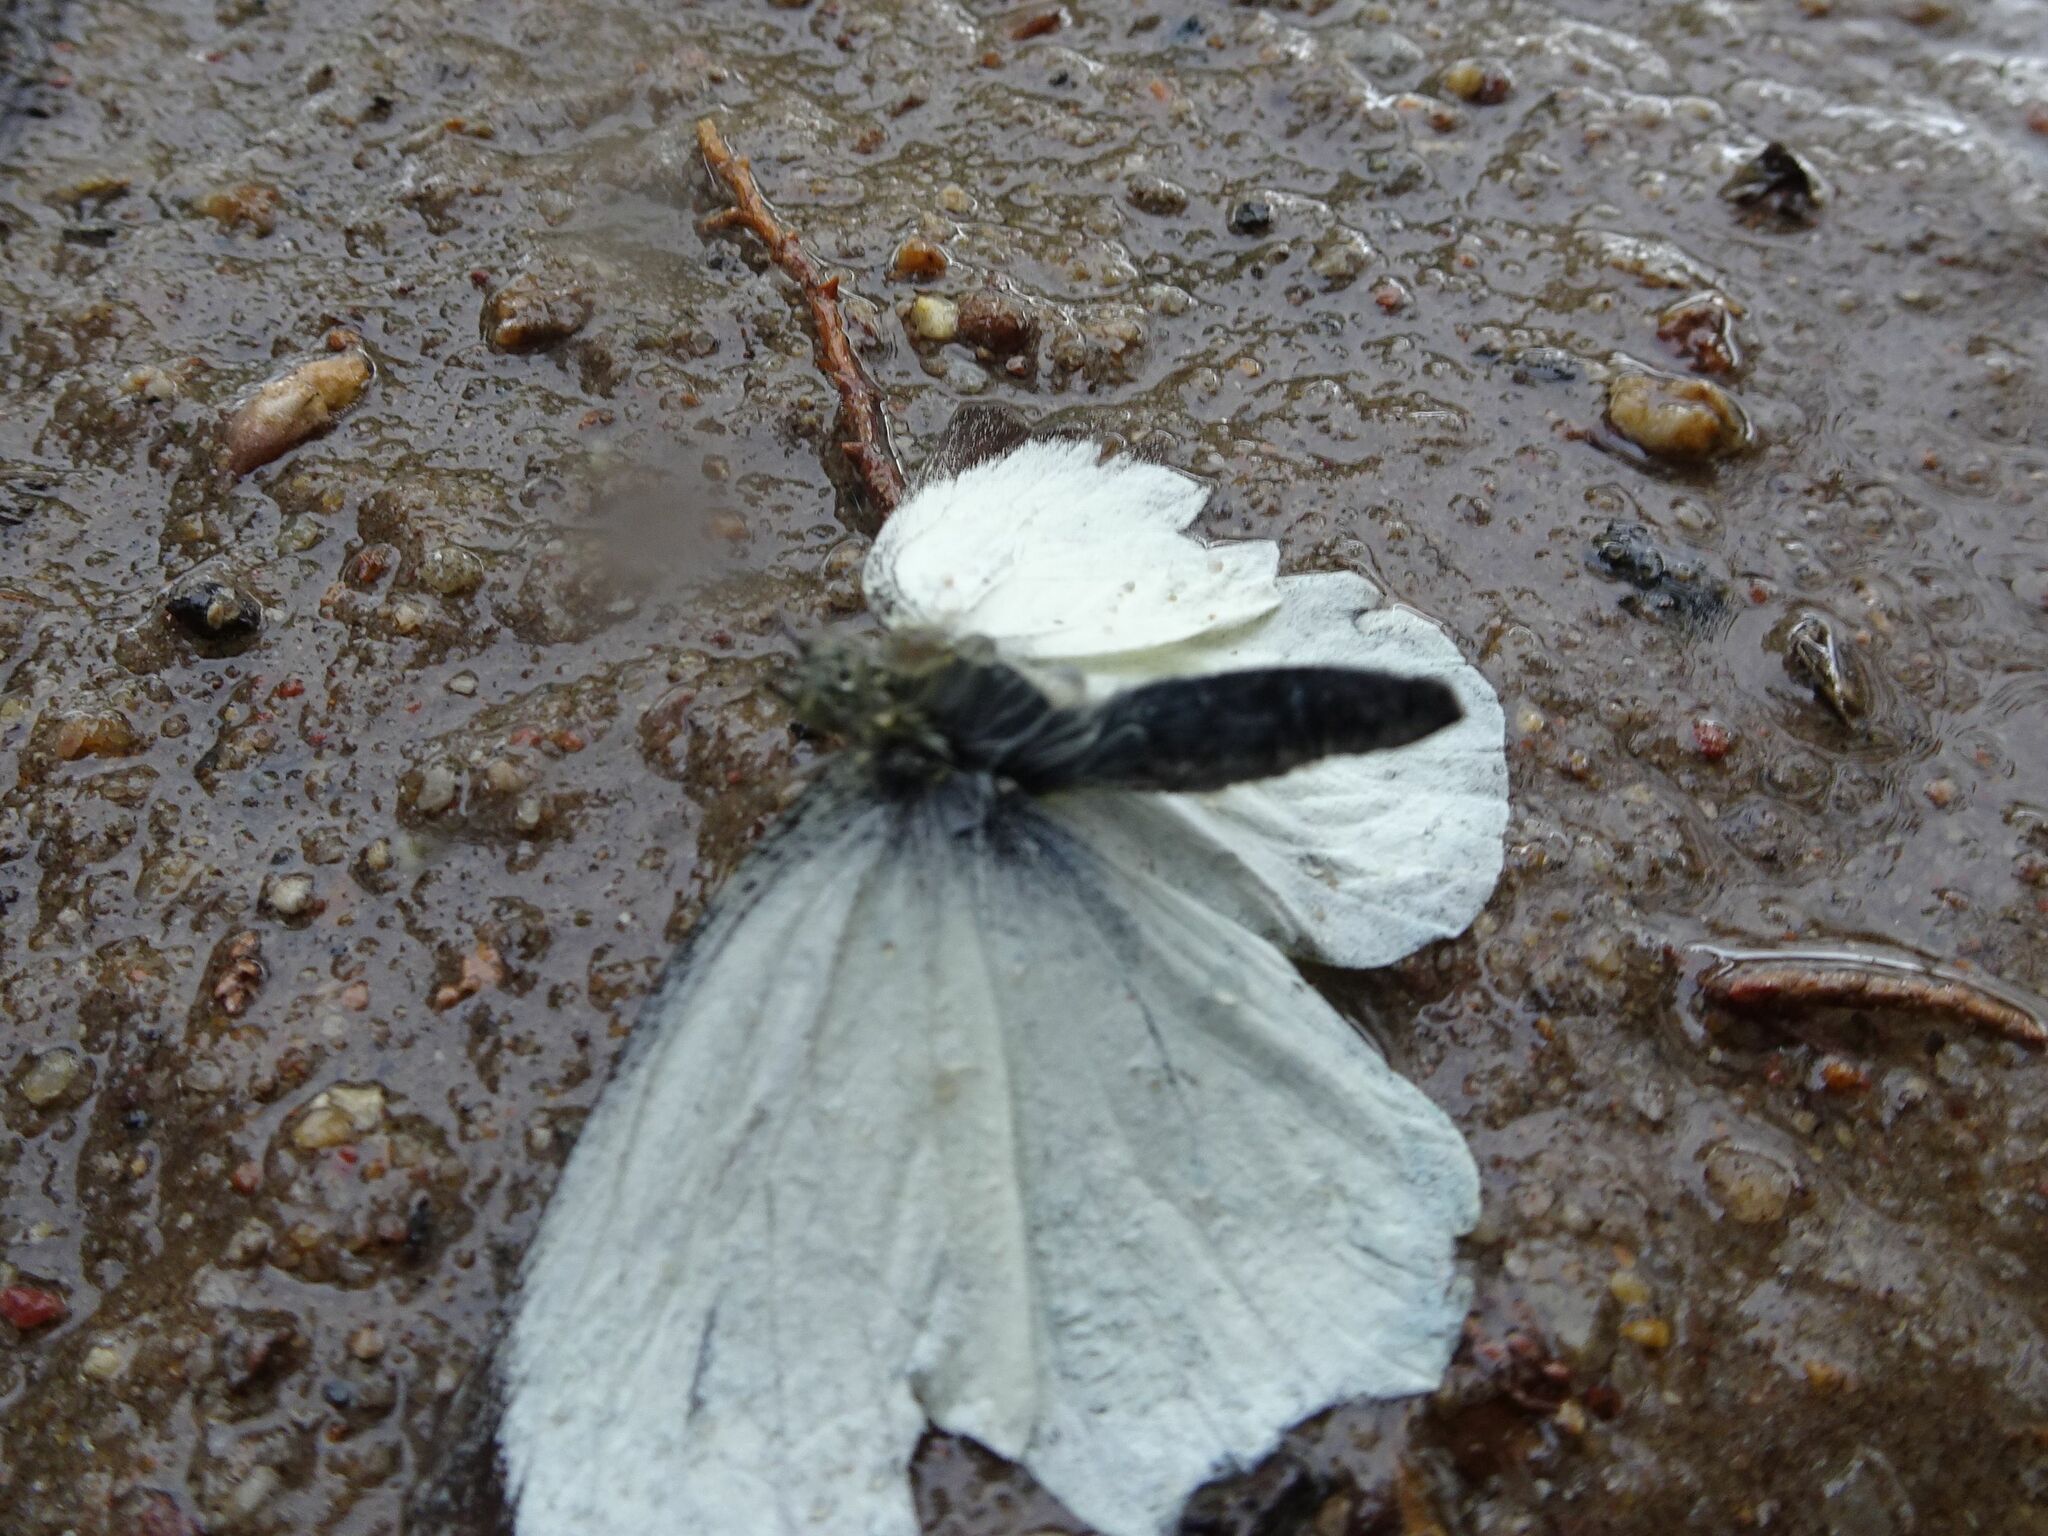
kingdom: Animalia
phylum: Arthropoda
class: Insecta
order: Lepidoptera
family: Pieridae
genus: Pieris
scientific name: Pieris brassicae
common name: Large white
